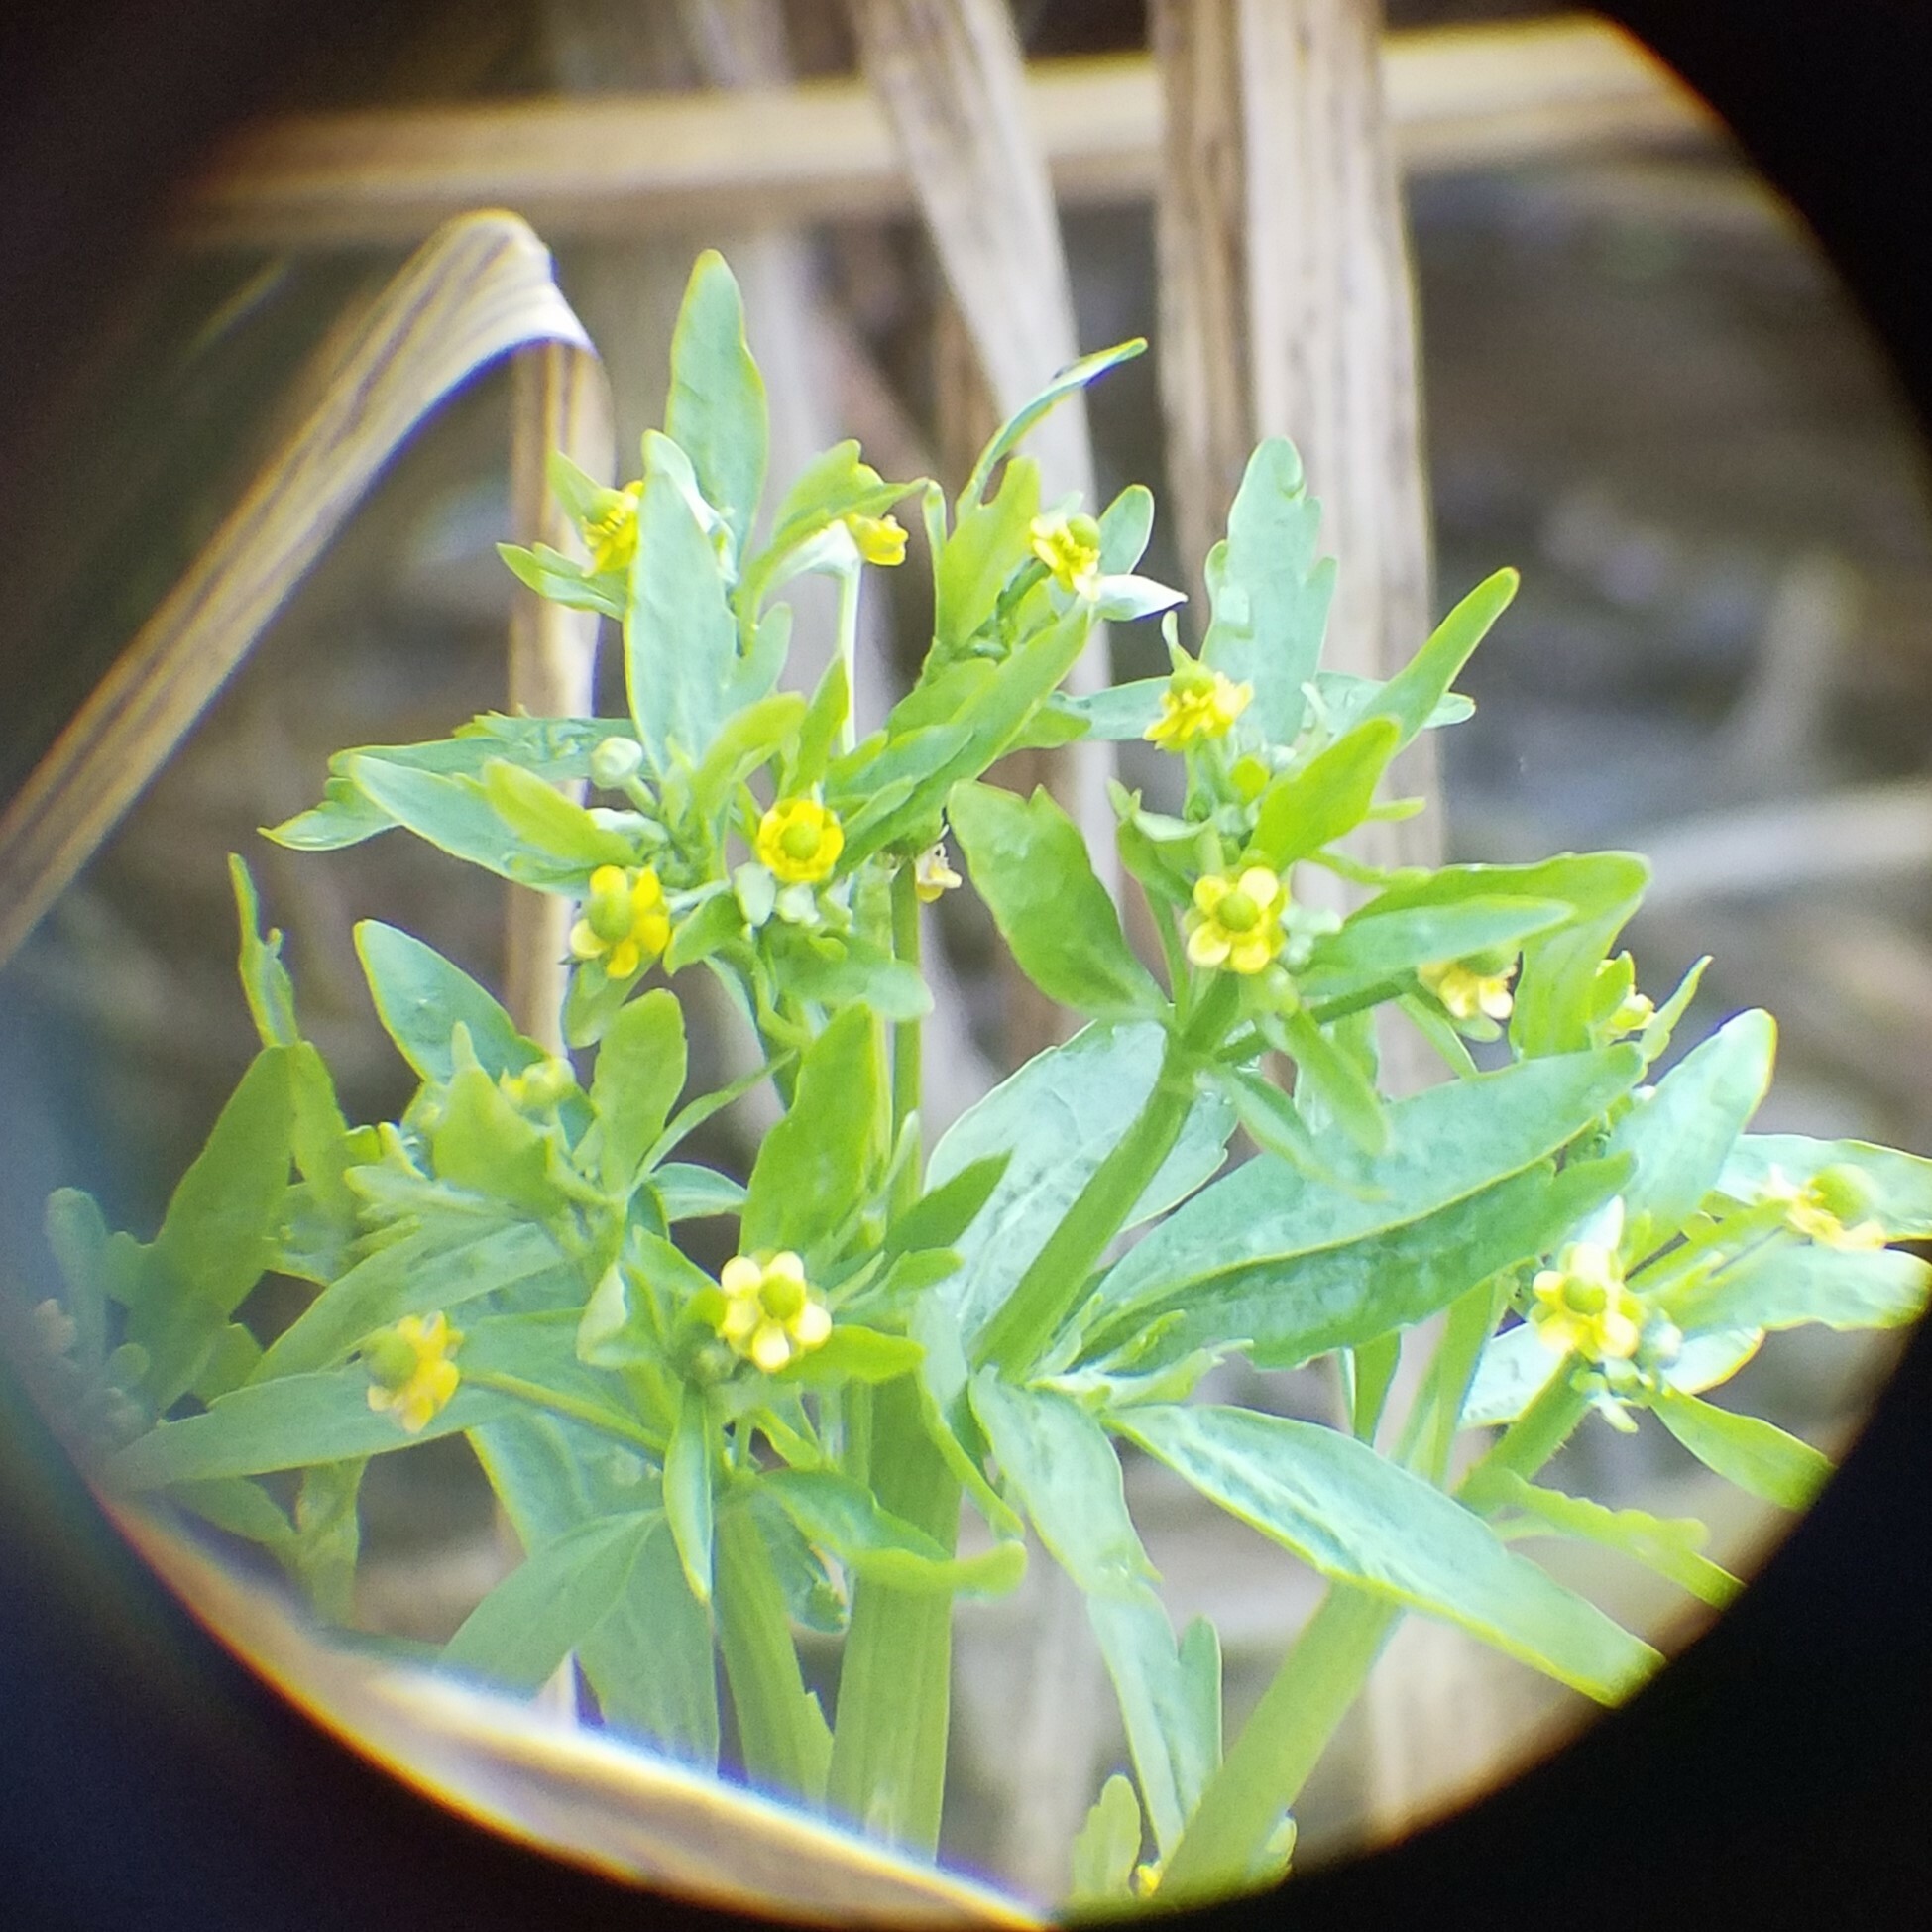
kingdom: Plantae
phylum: Tracheophyta
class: Magnoliopsida
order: Ranunculales
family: Ranunculaceae
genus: Ranunculus
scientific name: Ranunculus sceleratus
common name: Celery-leaved buttercup
